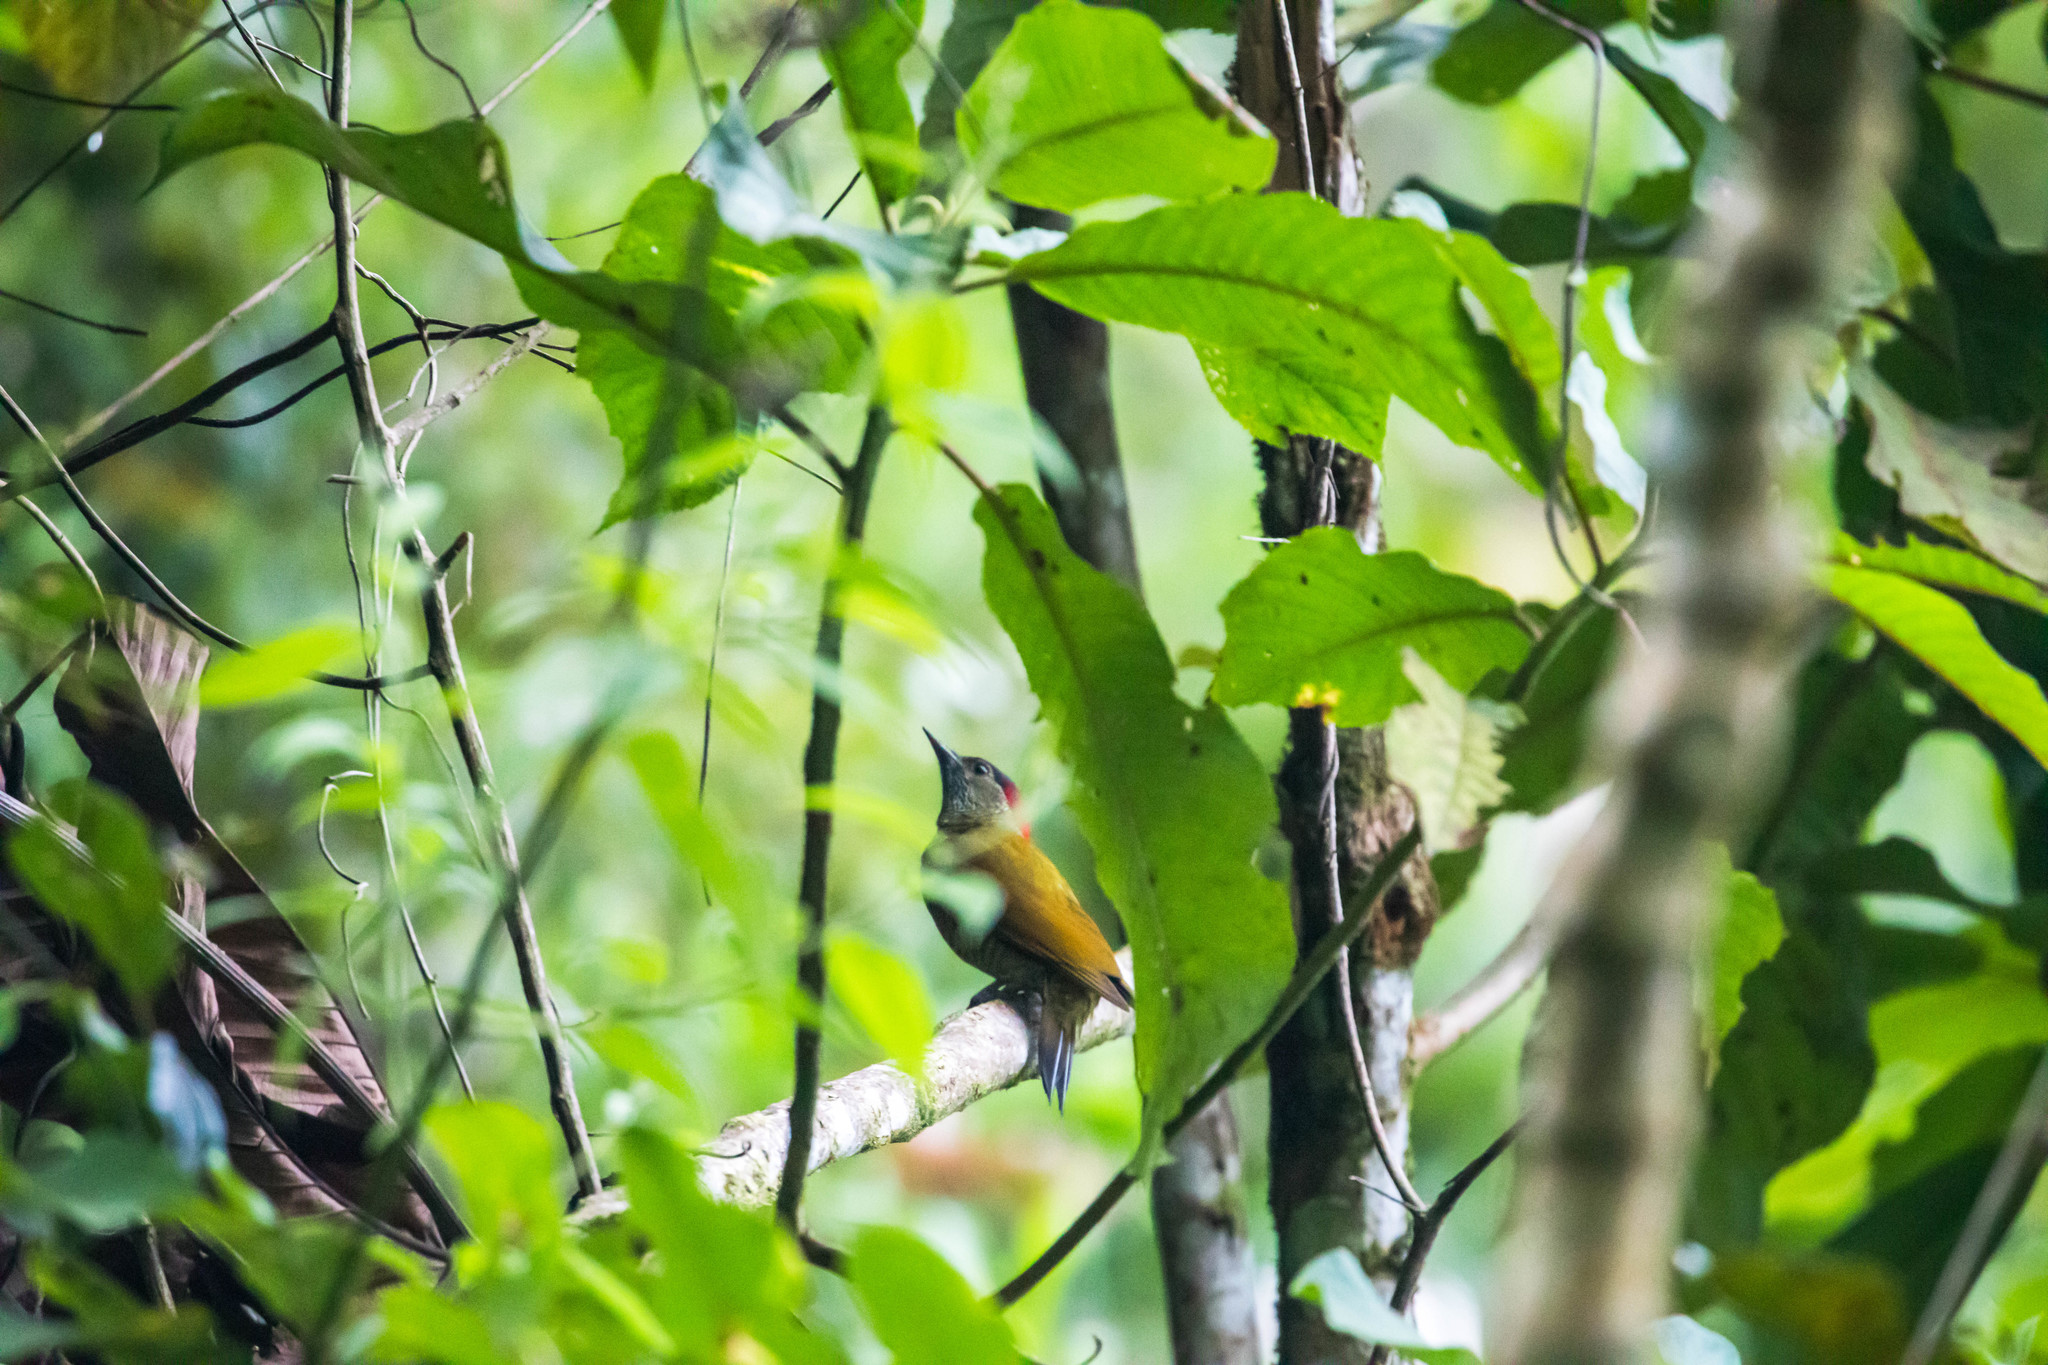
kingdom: Animalia
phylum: Chordata
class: Aves
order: Piciformes
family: Picidae
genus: Colaptes
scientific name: Colaptes rubiginosus
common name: Golden-olive woodpecker
